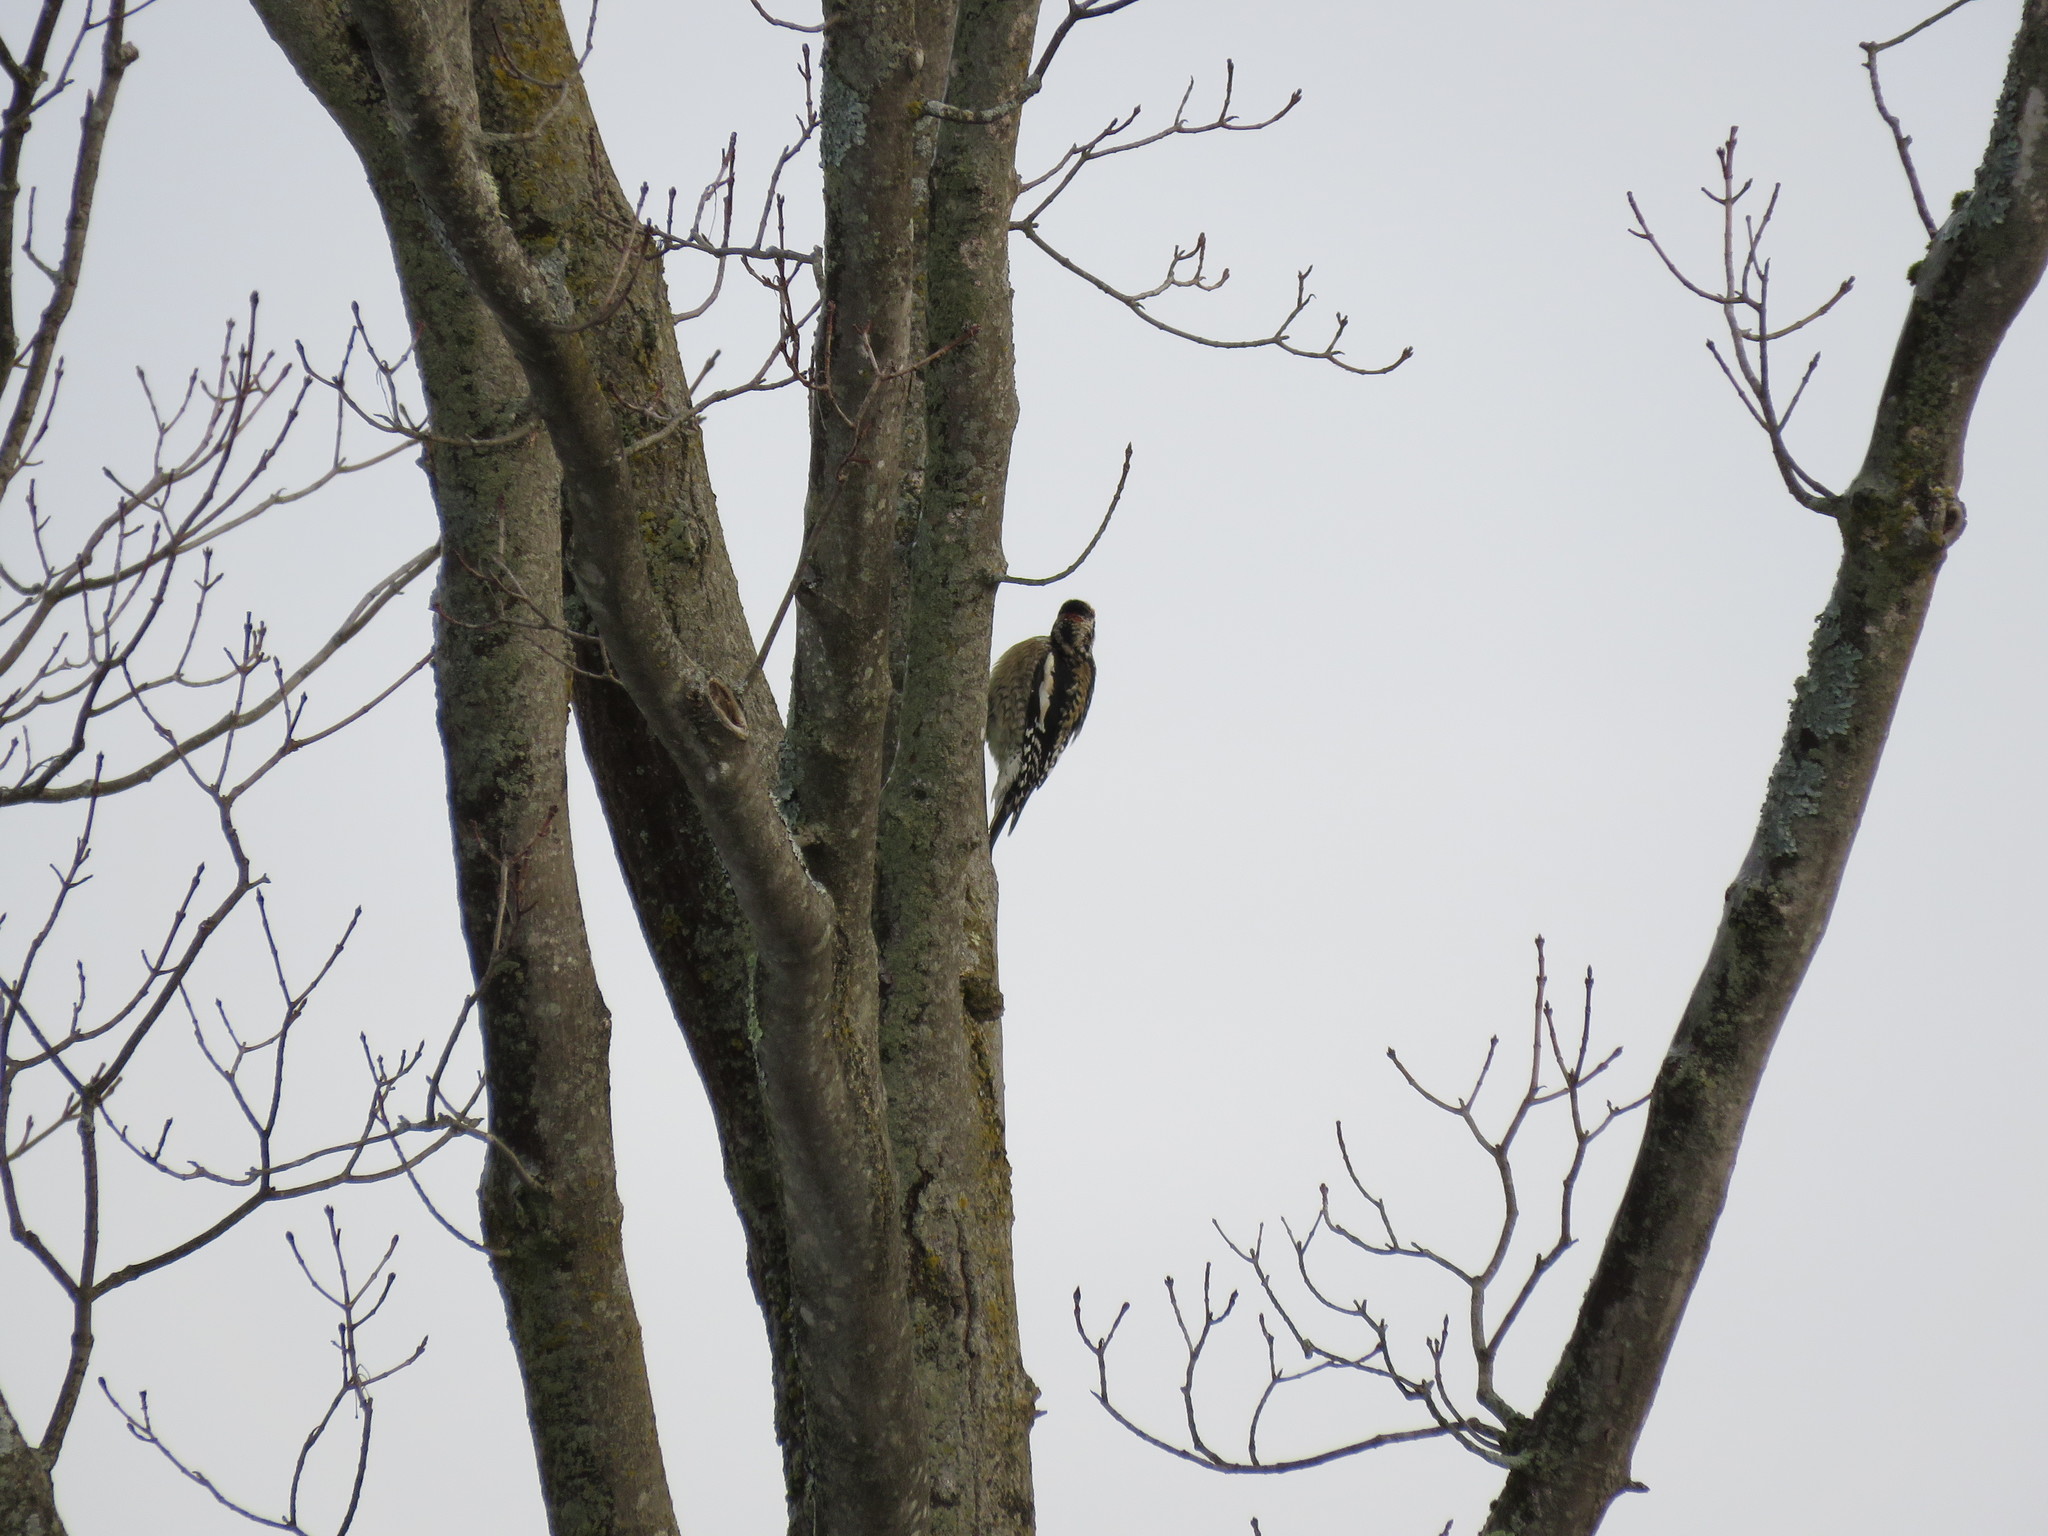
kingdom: Animalia
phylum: Chordata
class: Aves
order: Piciformes
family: Picidae
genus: Sphyrapicus
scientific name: Sphyrapicus varius
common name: Yellow-bellied sapsucker
